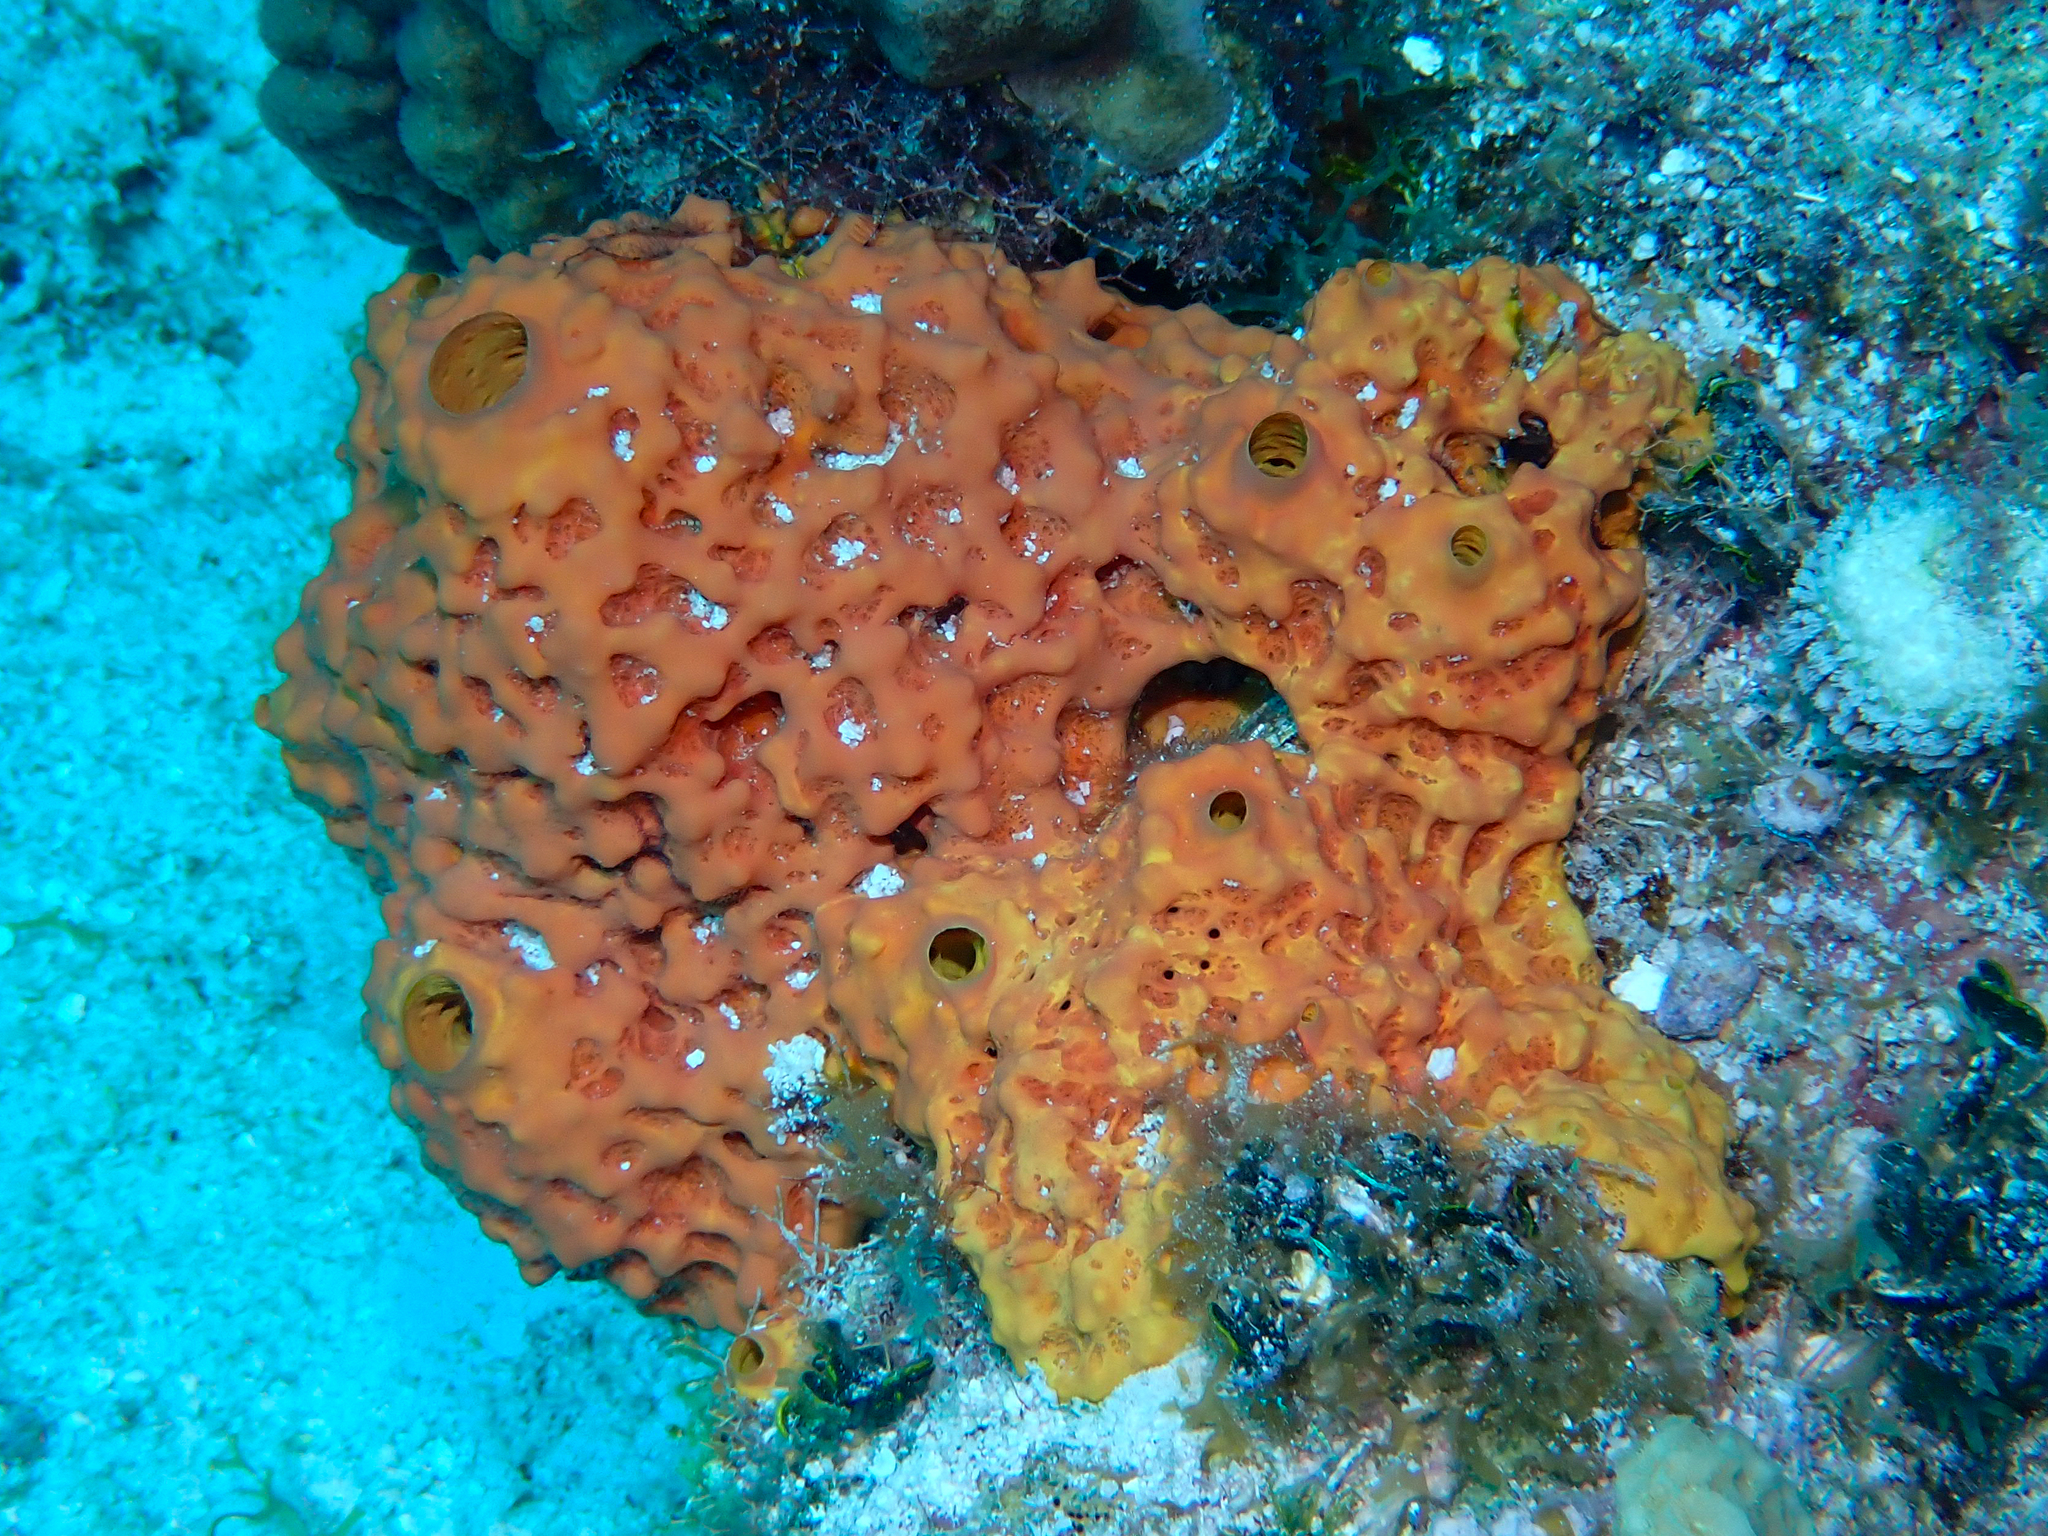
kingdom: Animalia
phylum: Porifera
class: Demospongiae
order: Verongiida
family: Aplysinidae
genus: Aiolochroia
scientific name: Aiolochroia crassa
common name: Branching tube sponge
